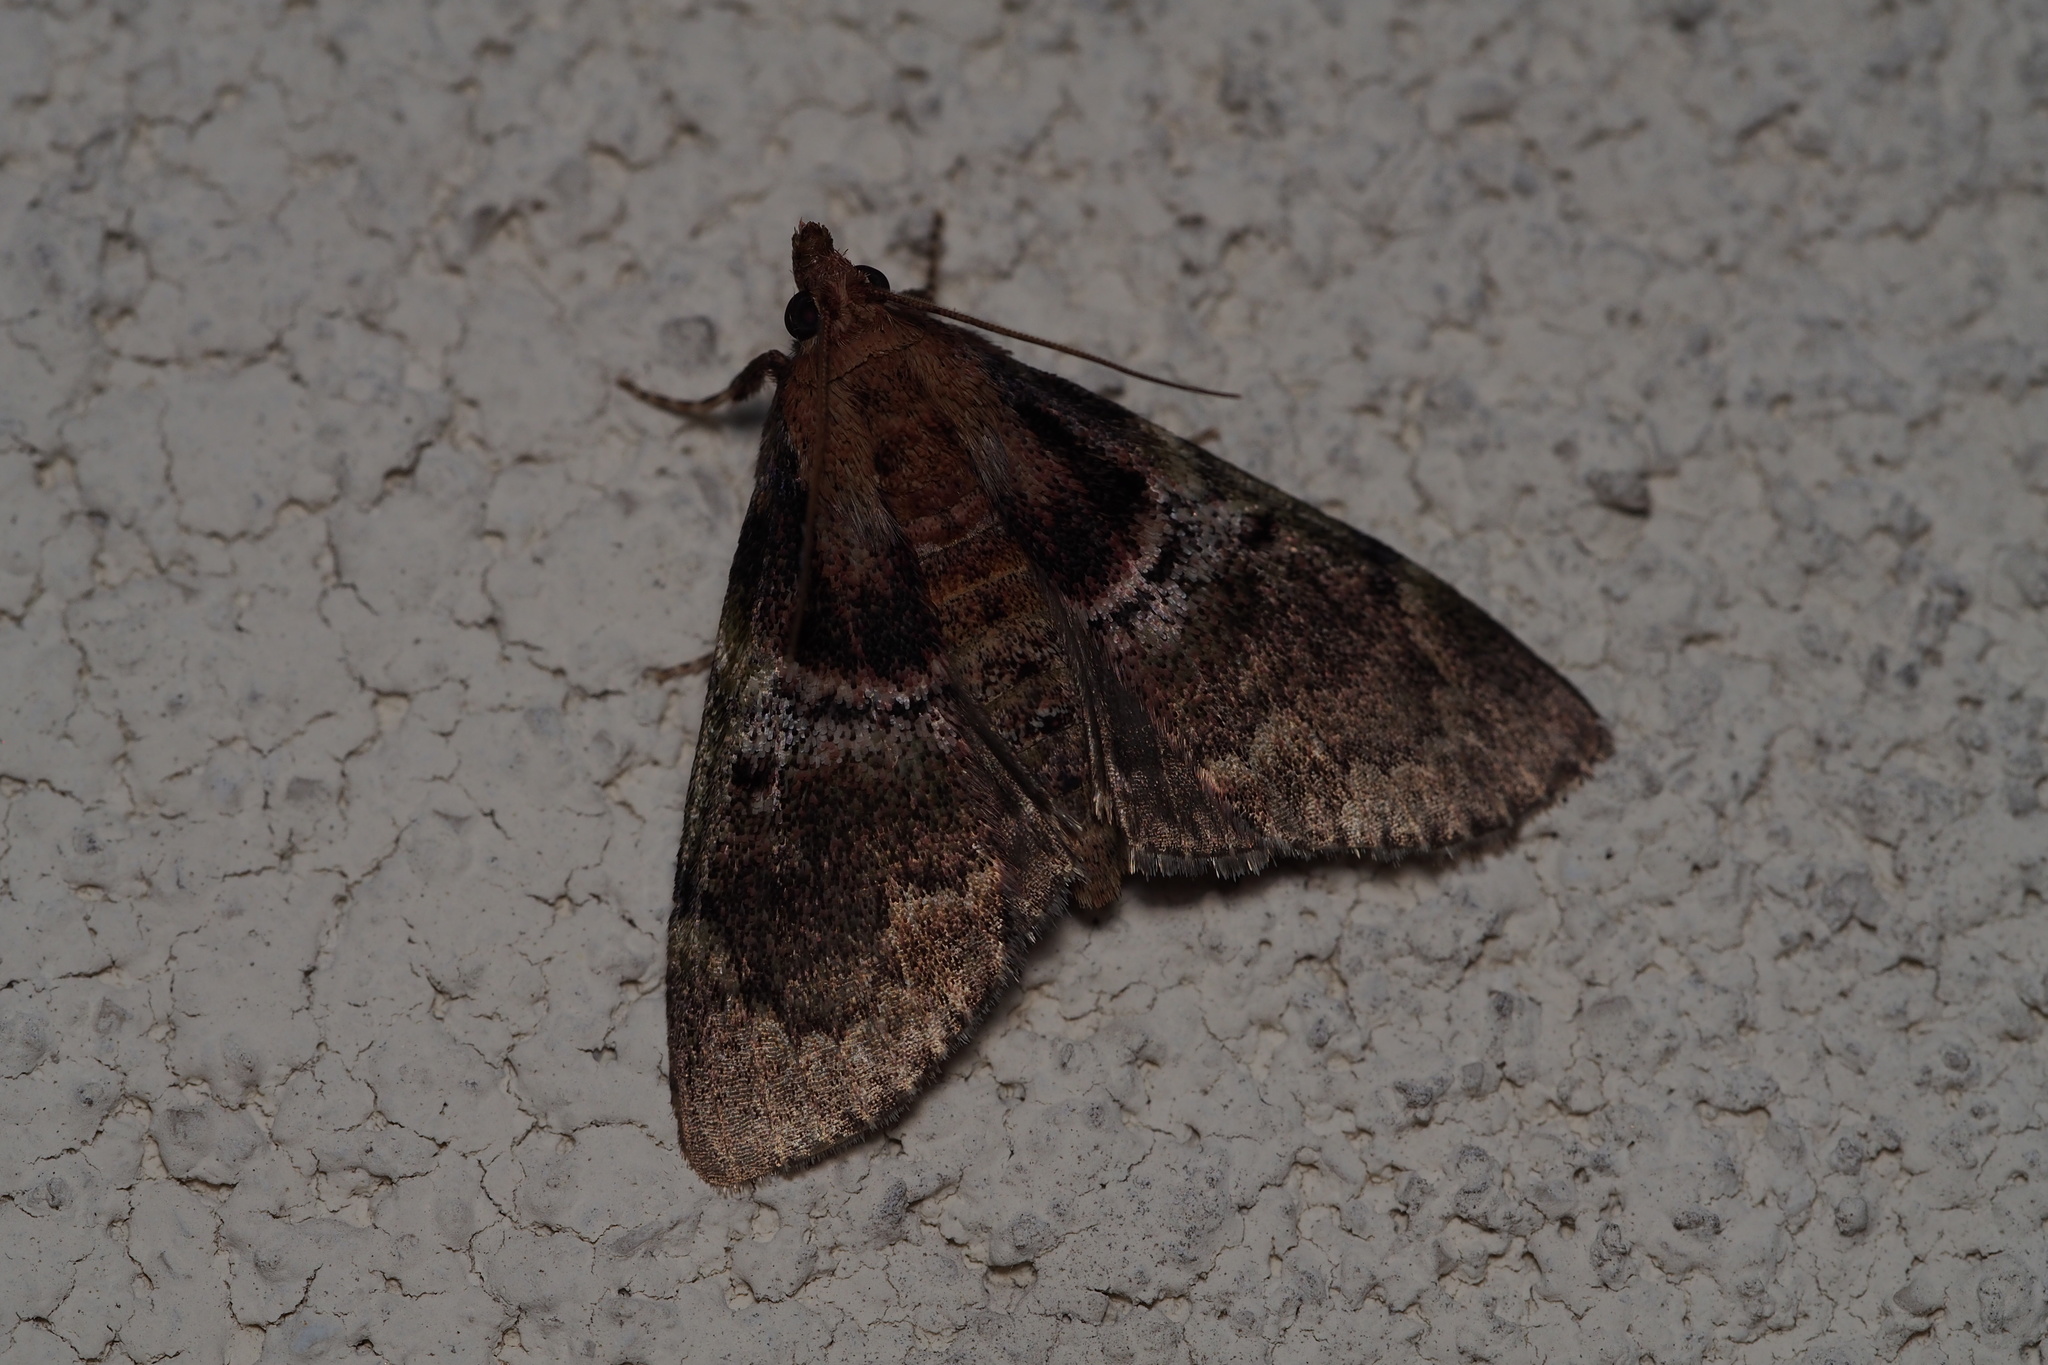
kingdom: Animalia
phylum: Arthropoda
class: Insecta
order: Lepidoptera
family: Pyralidae
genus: Locastra
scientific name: Locastra muscosalis
